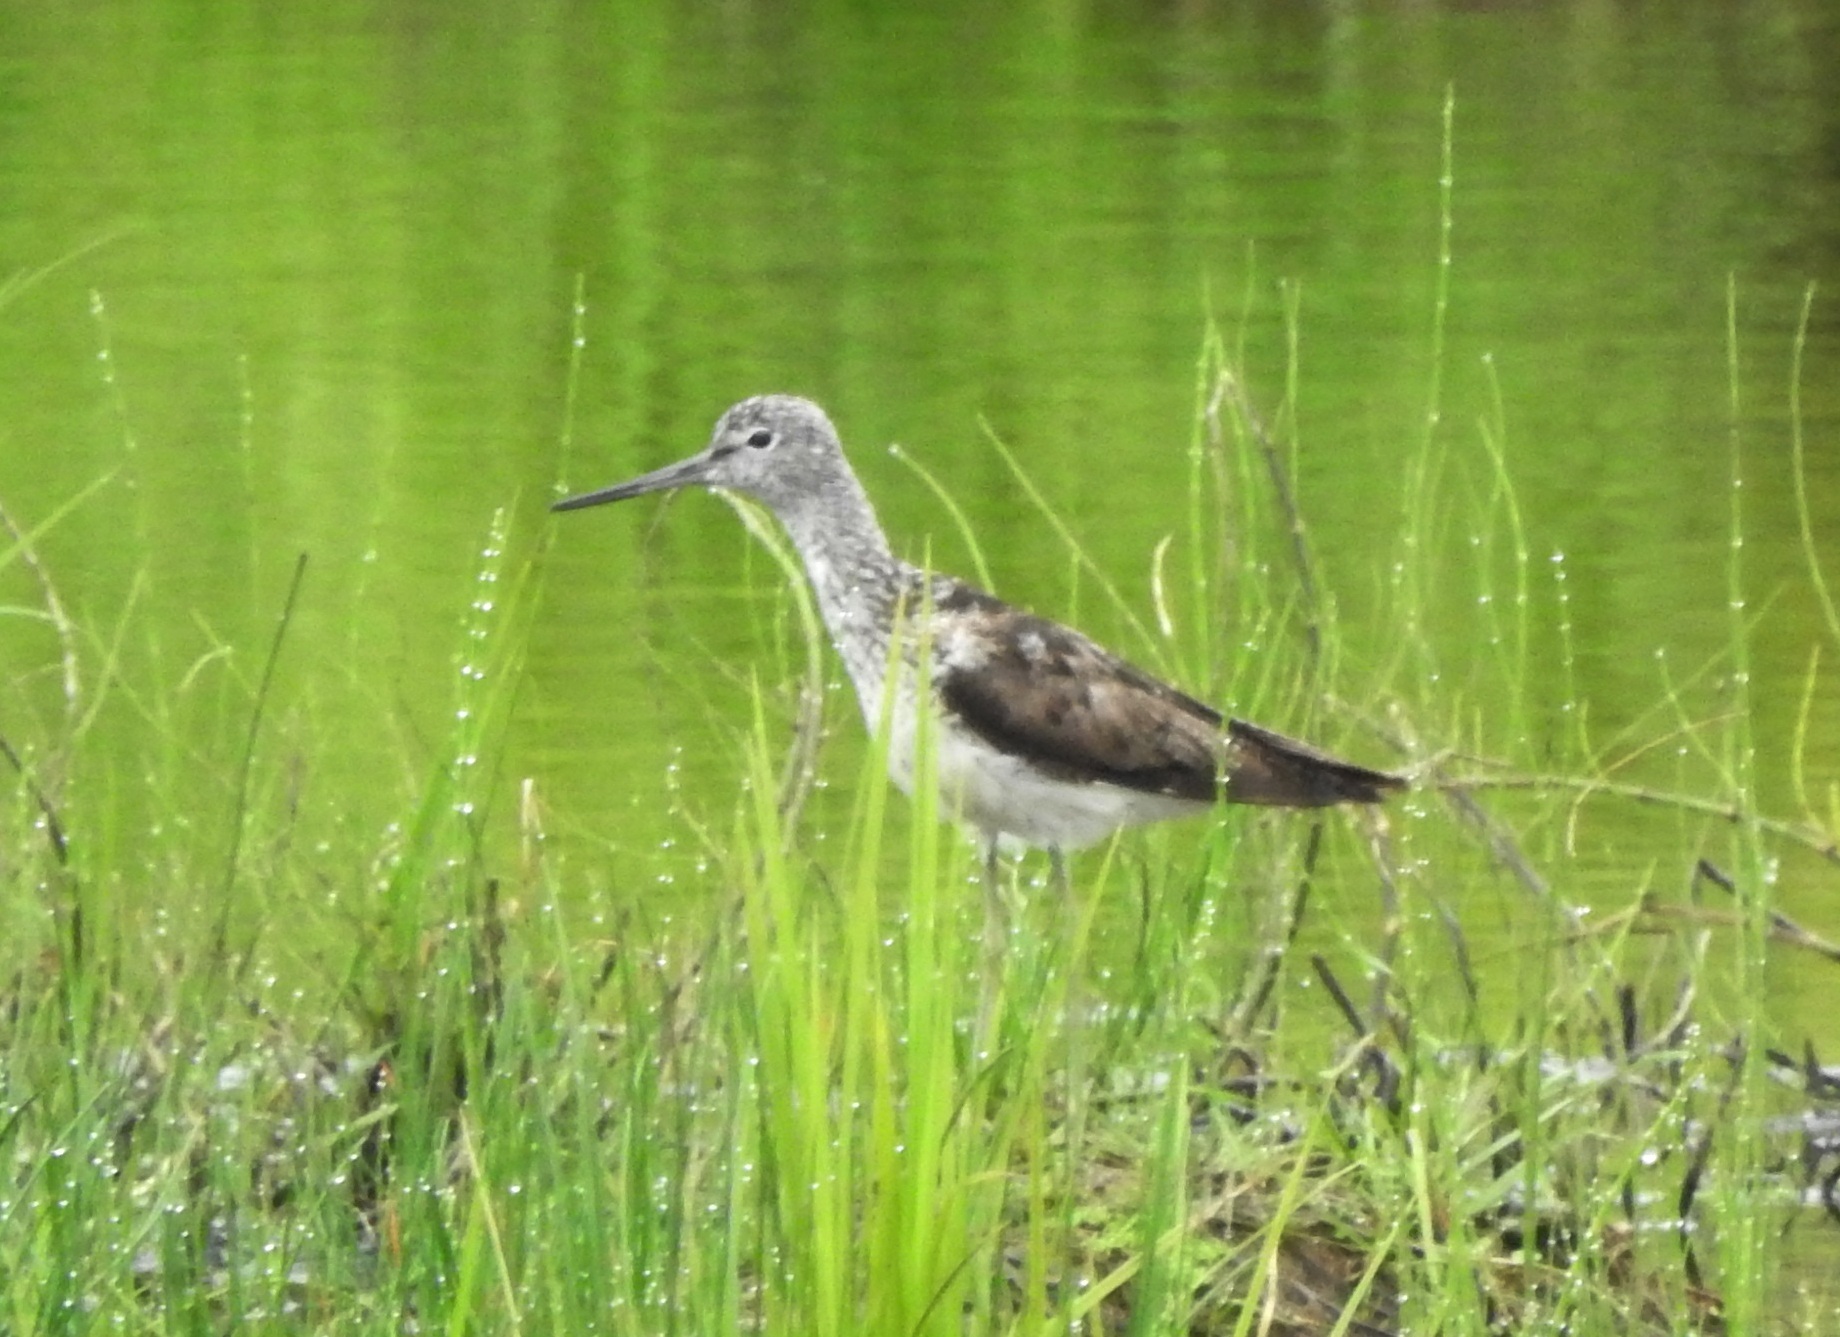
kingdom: Animalia
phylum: Chordata
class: Aves
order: Charadriiformes
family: Scolopacidae
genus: Tringa
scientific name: Tringa nebularia
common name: Common greenshank
